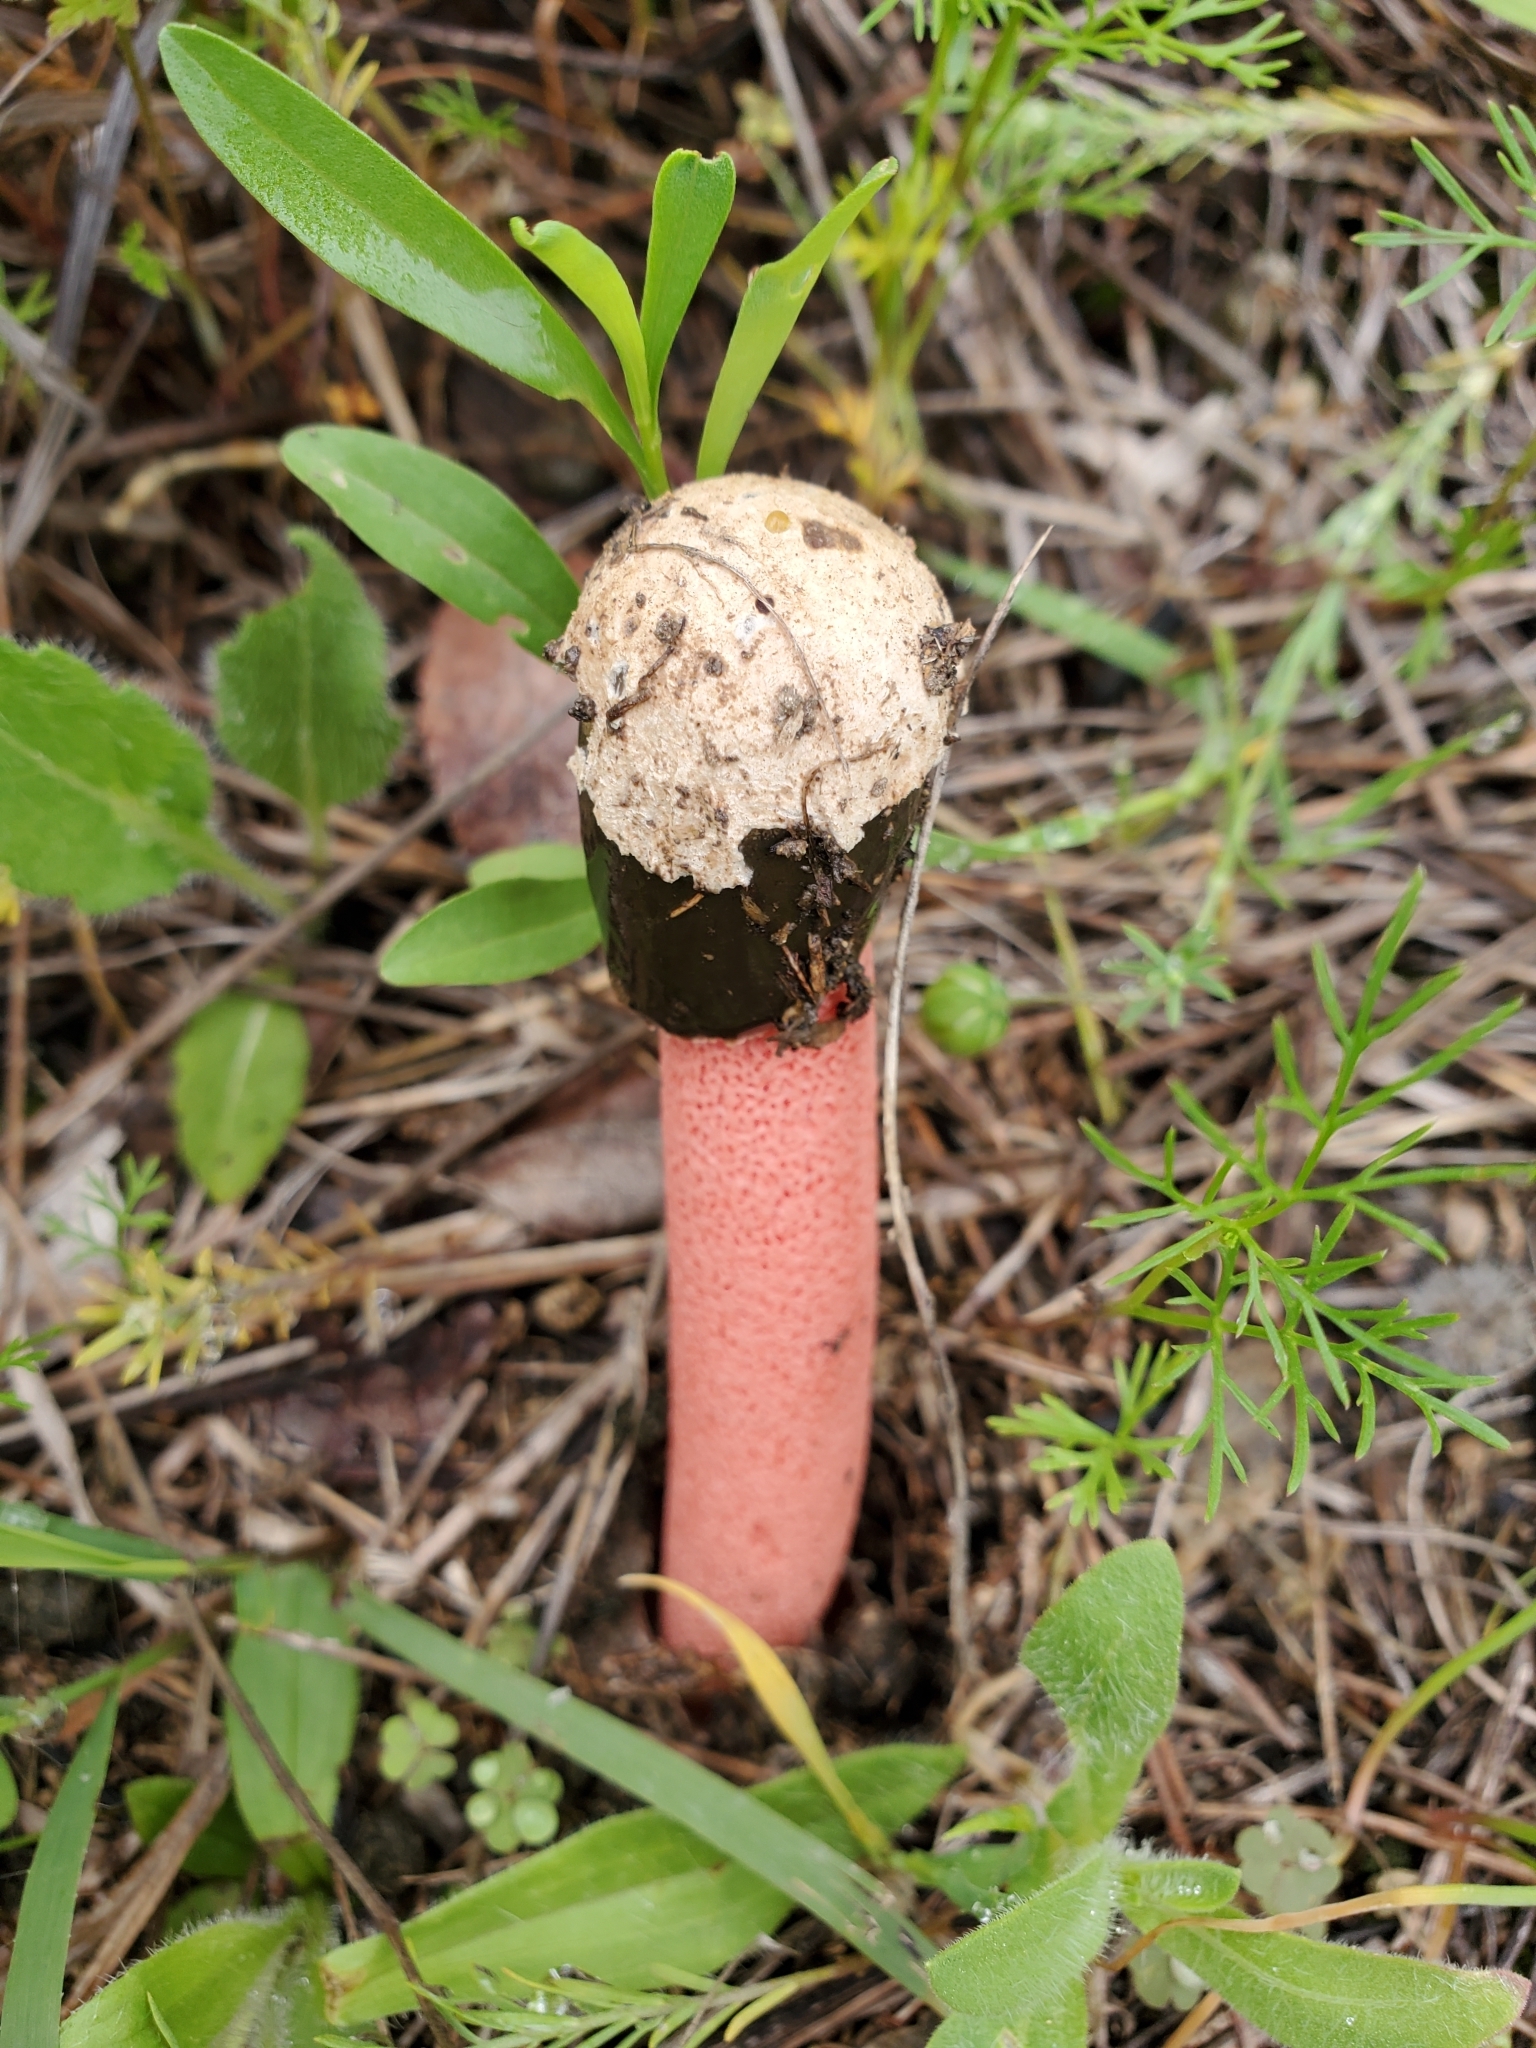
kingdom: Fungi
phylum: Basidiomycota
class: Agaricomycetes
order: Phallales
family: Phallaceae
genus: Phallus
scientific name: Phallus rubicundus
